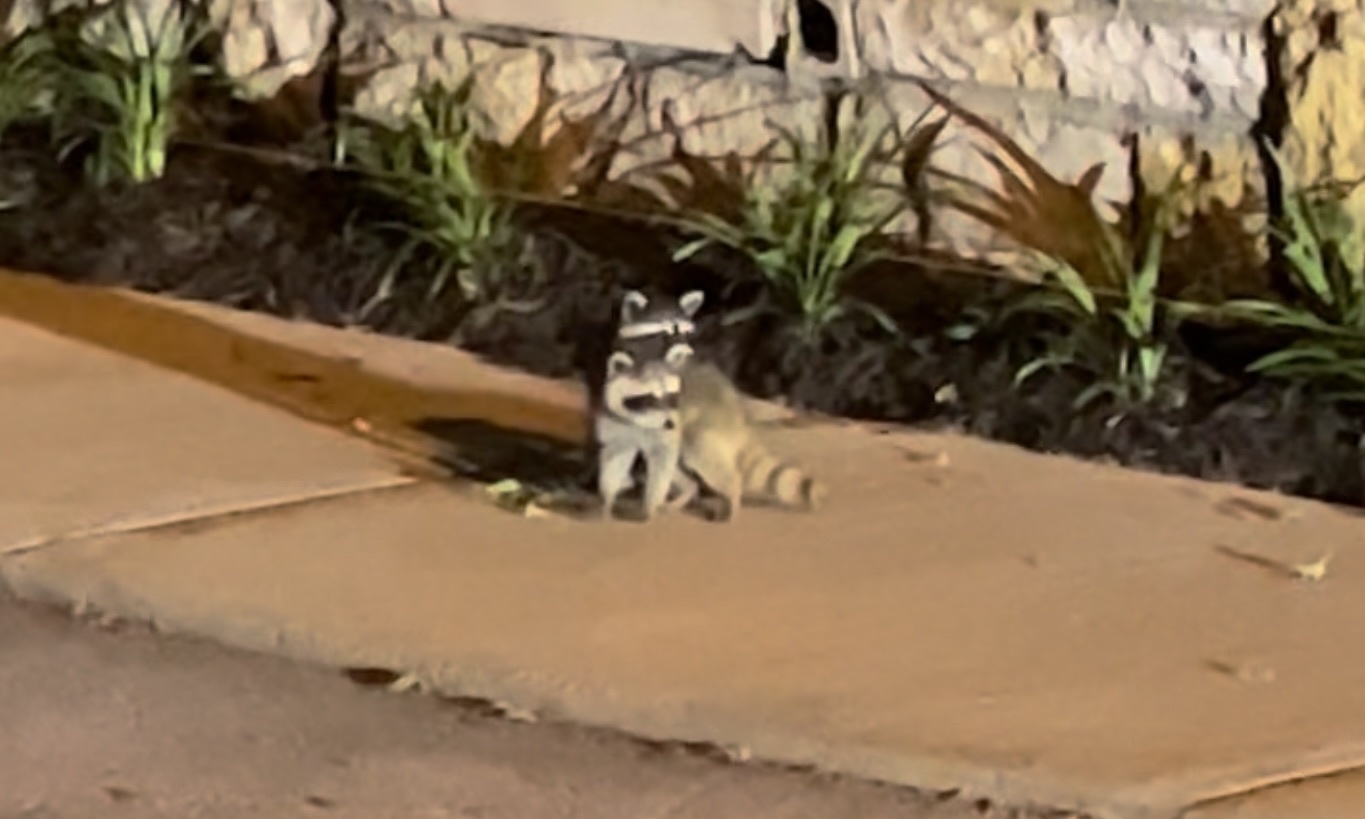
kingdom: Animalia
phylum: Chordata
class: Mammalia
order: Carnivora
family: Procyonidae
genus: Procyon
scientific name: Procyon lotor
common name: Raccoon
